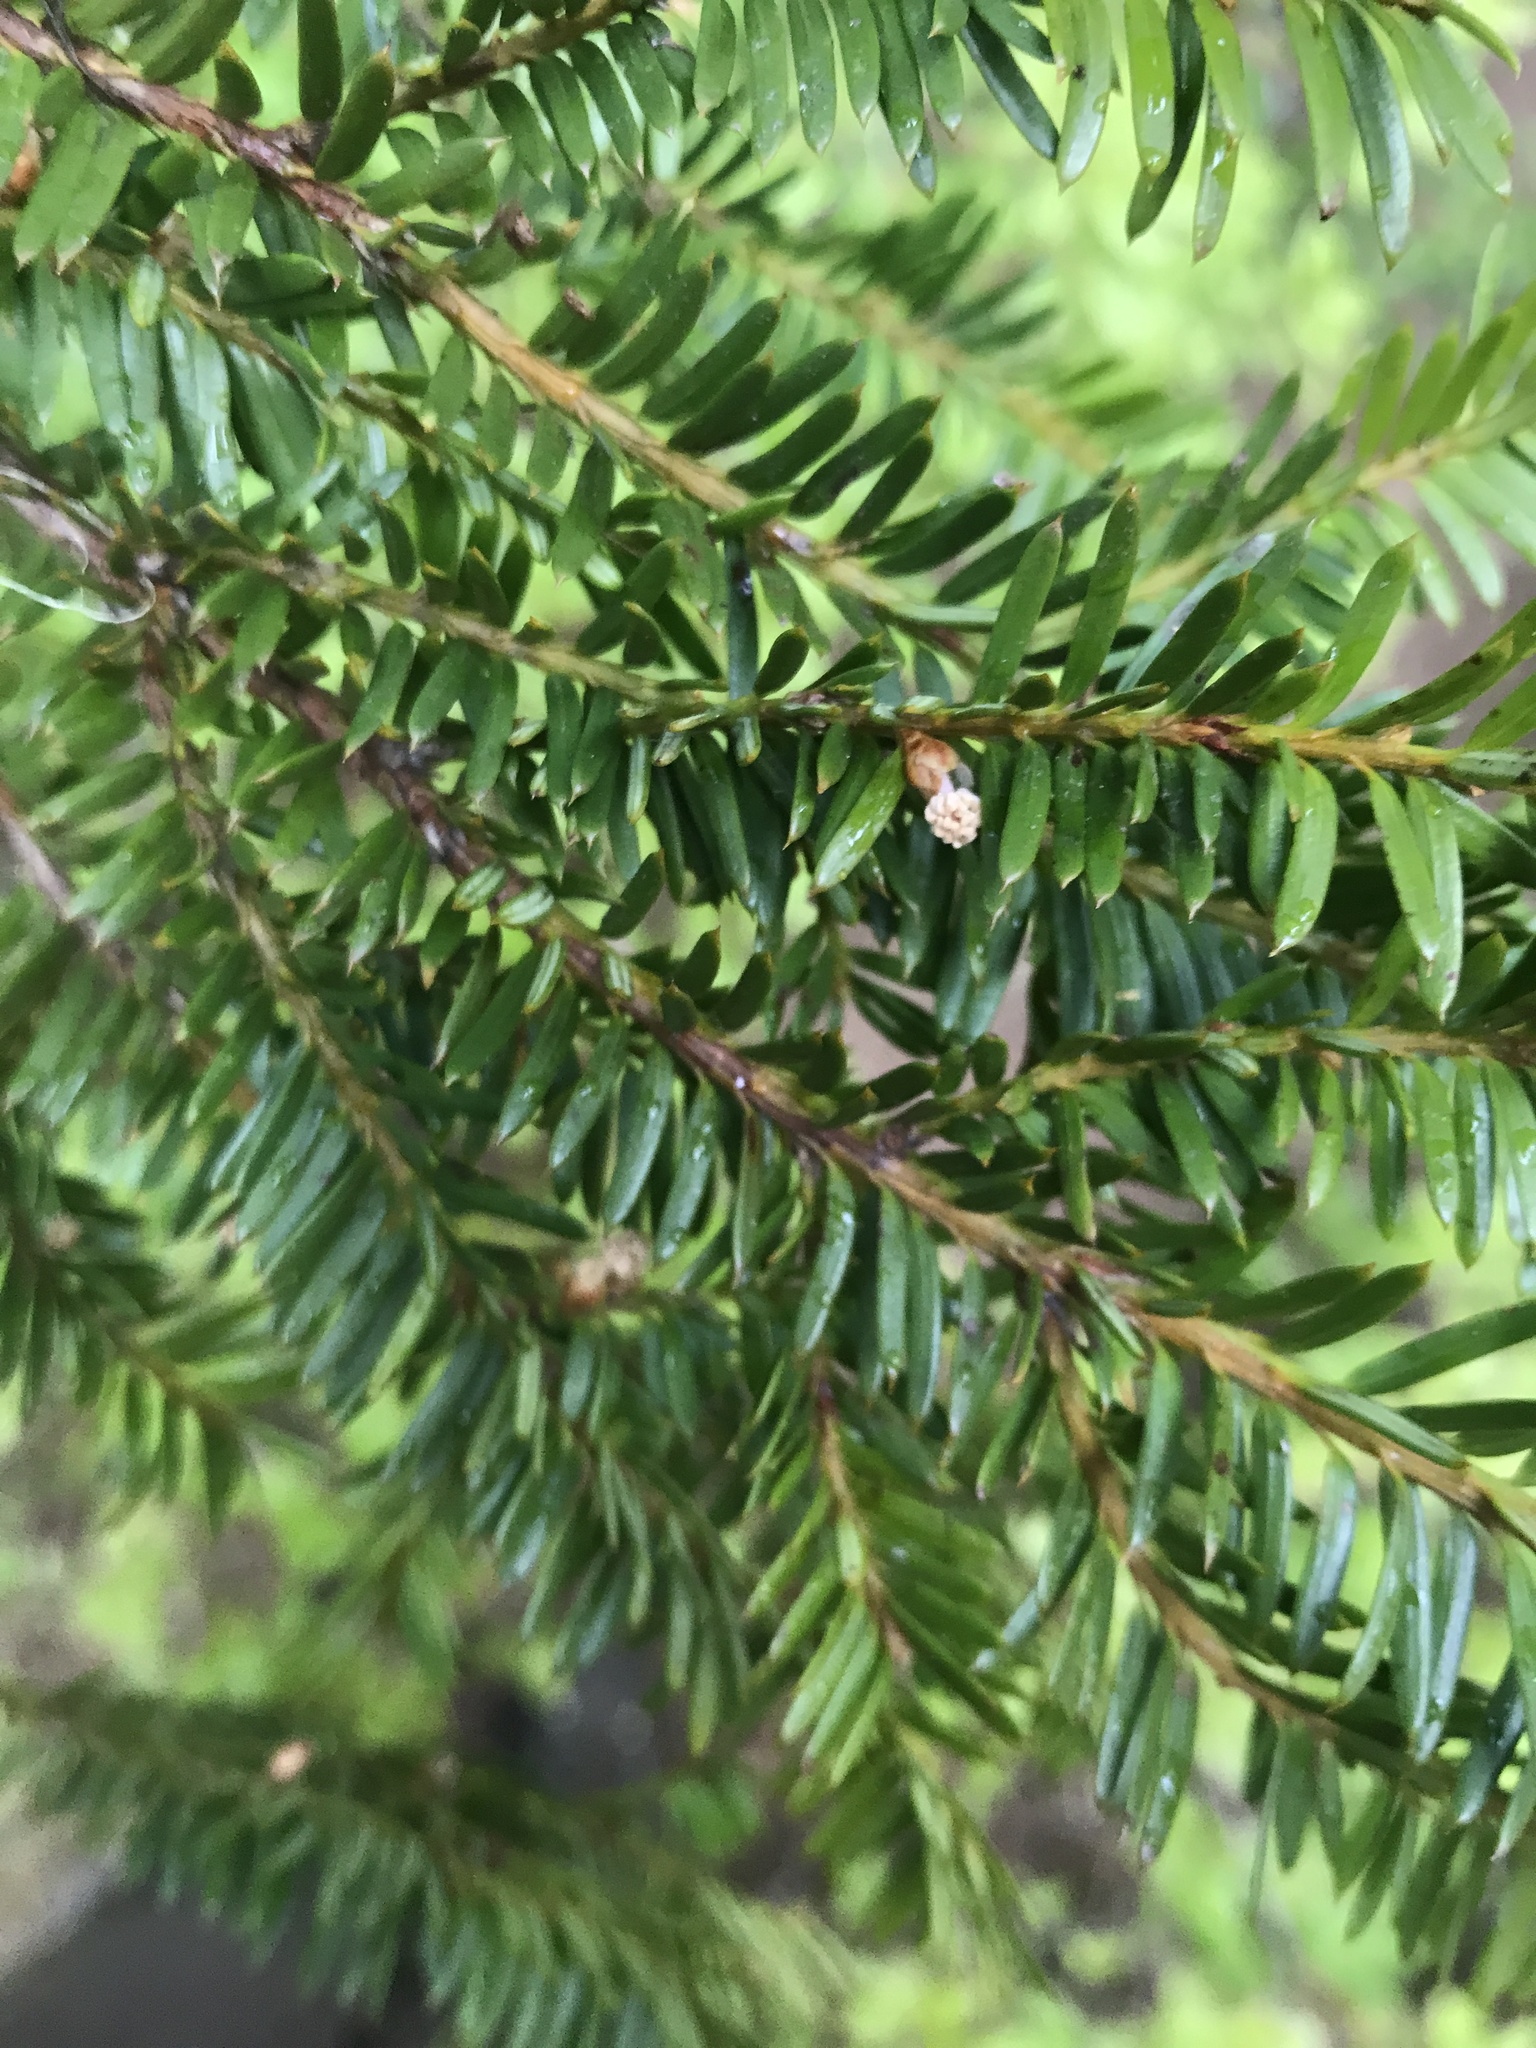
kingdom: Plantae
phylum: Tracheophyta
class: Pinopsida
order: Pinales
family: Taxaceae
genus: Taxus
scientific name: Taxus brevifolia
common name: Pacific yew
